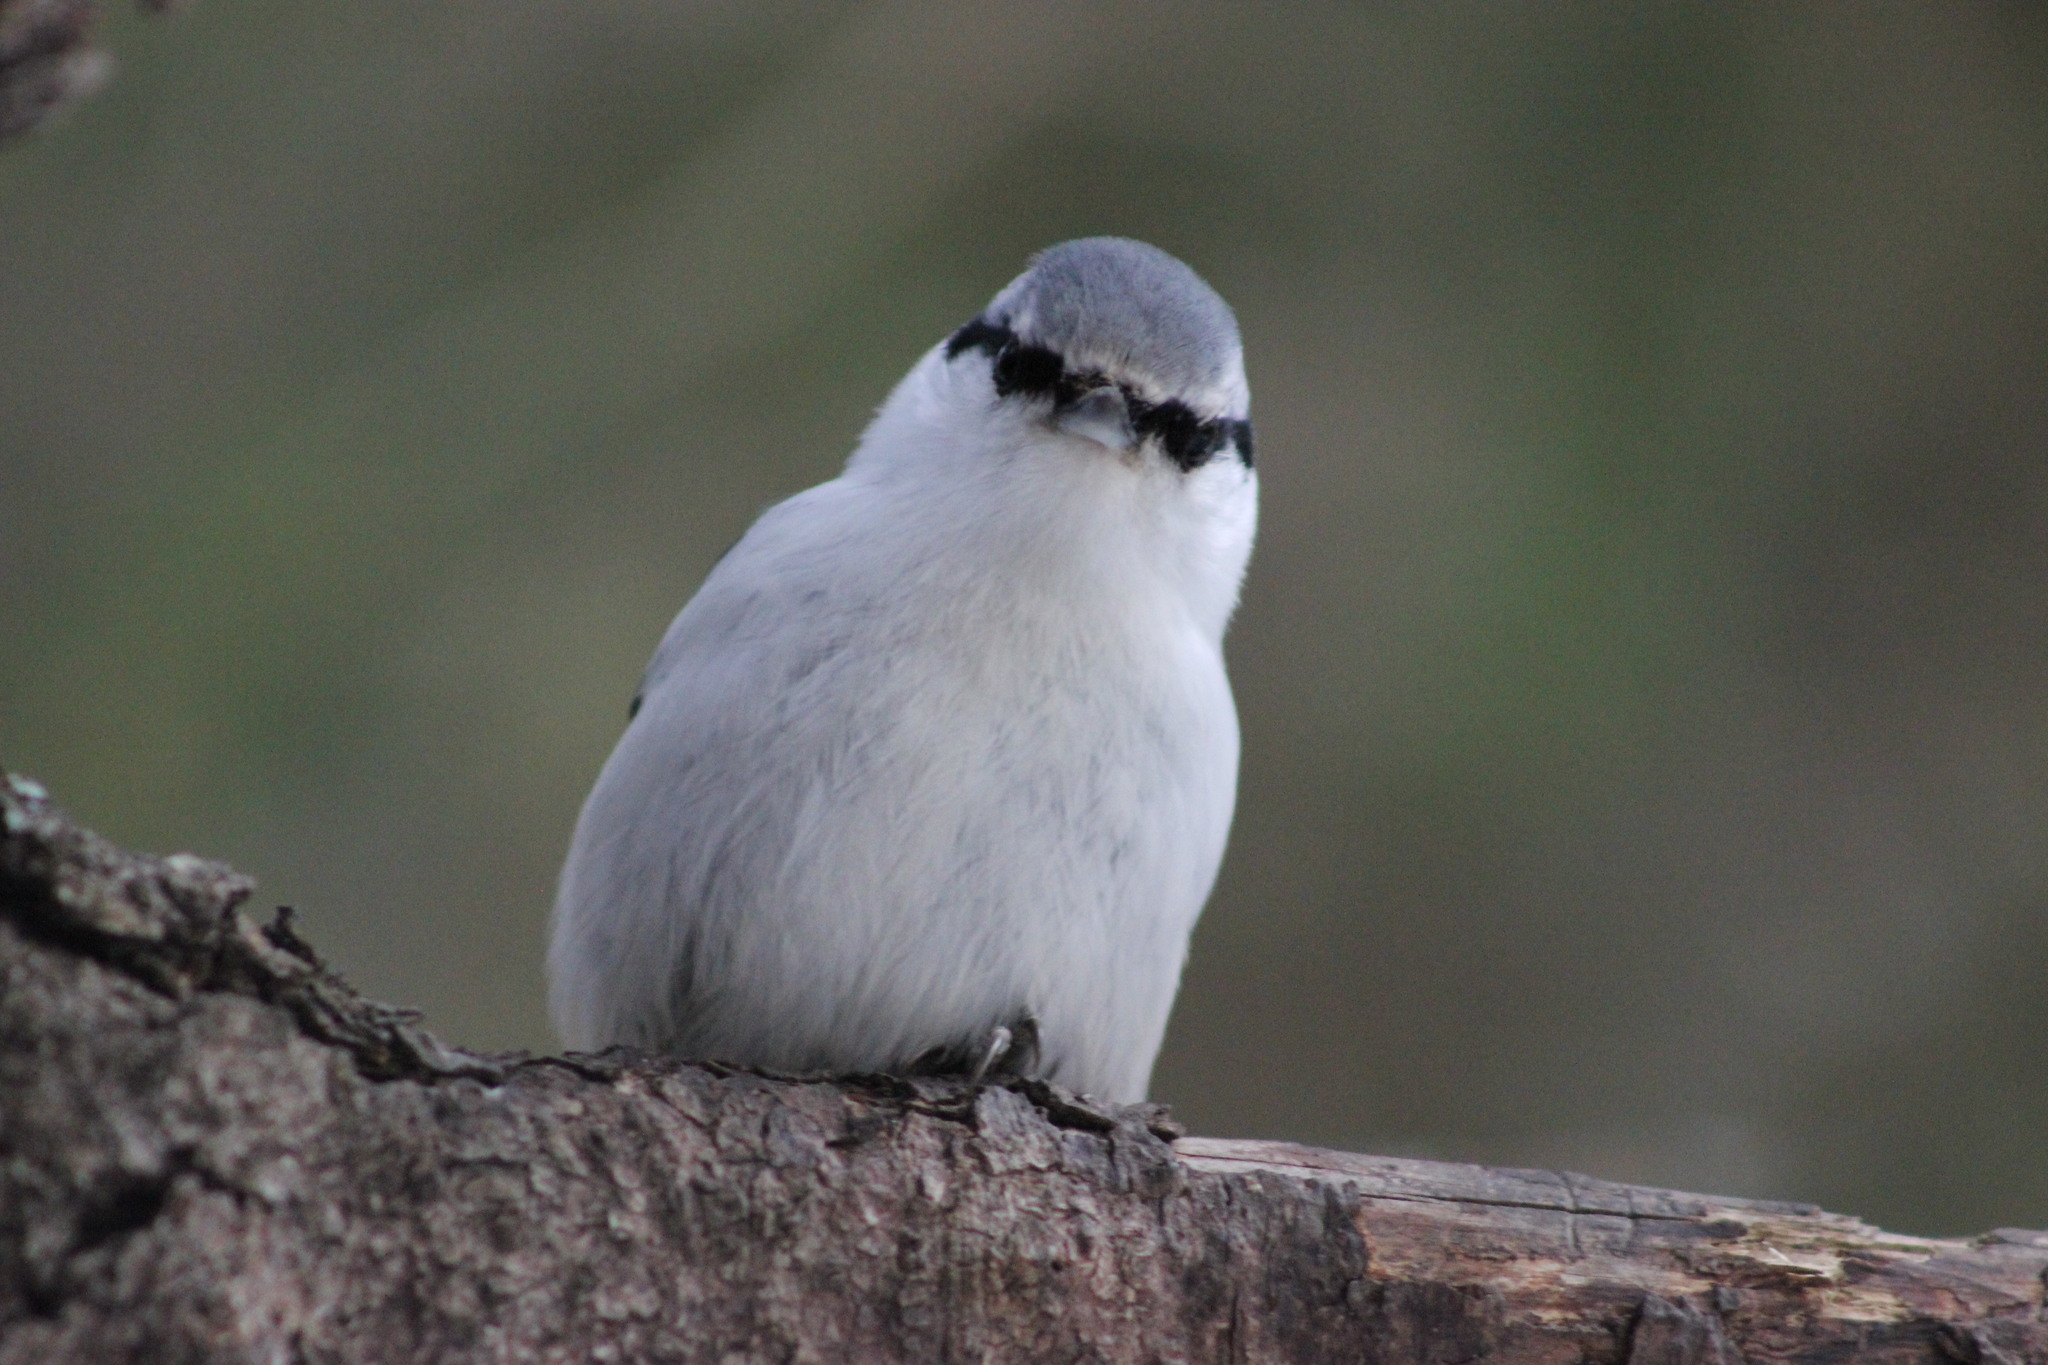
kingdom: Animalia
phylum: Chordata
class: Aves
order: Passeriformes
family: Sittidae
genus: Sitta
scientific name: Sitta europaea
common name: Eurasian nuthatch
